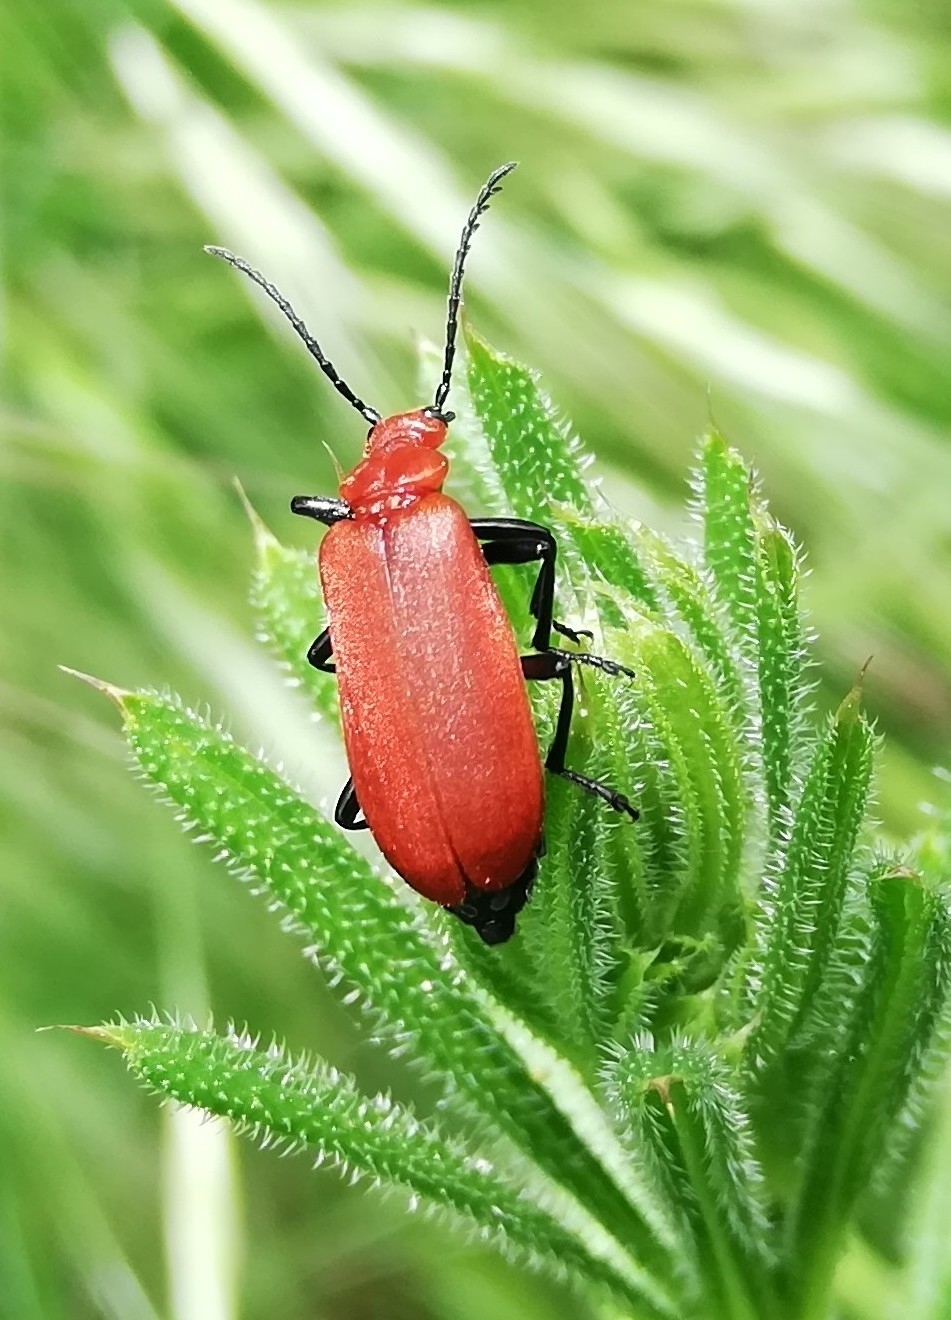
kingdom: Animalia
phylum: Arthropoda
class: Insecta
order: Coleoptera
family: Pyrochroidae
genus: Pyrochroa
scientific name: Pyrochroa serraticornis
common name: Red-headed cardinal beetle
